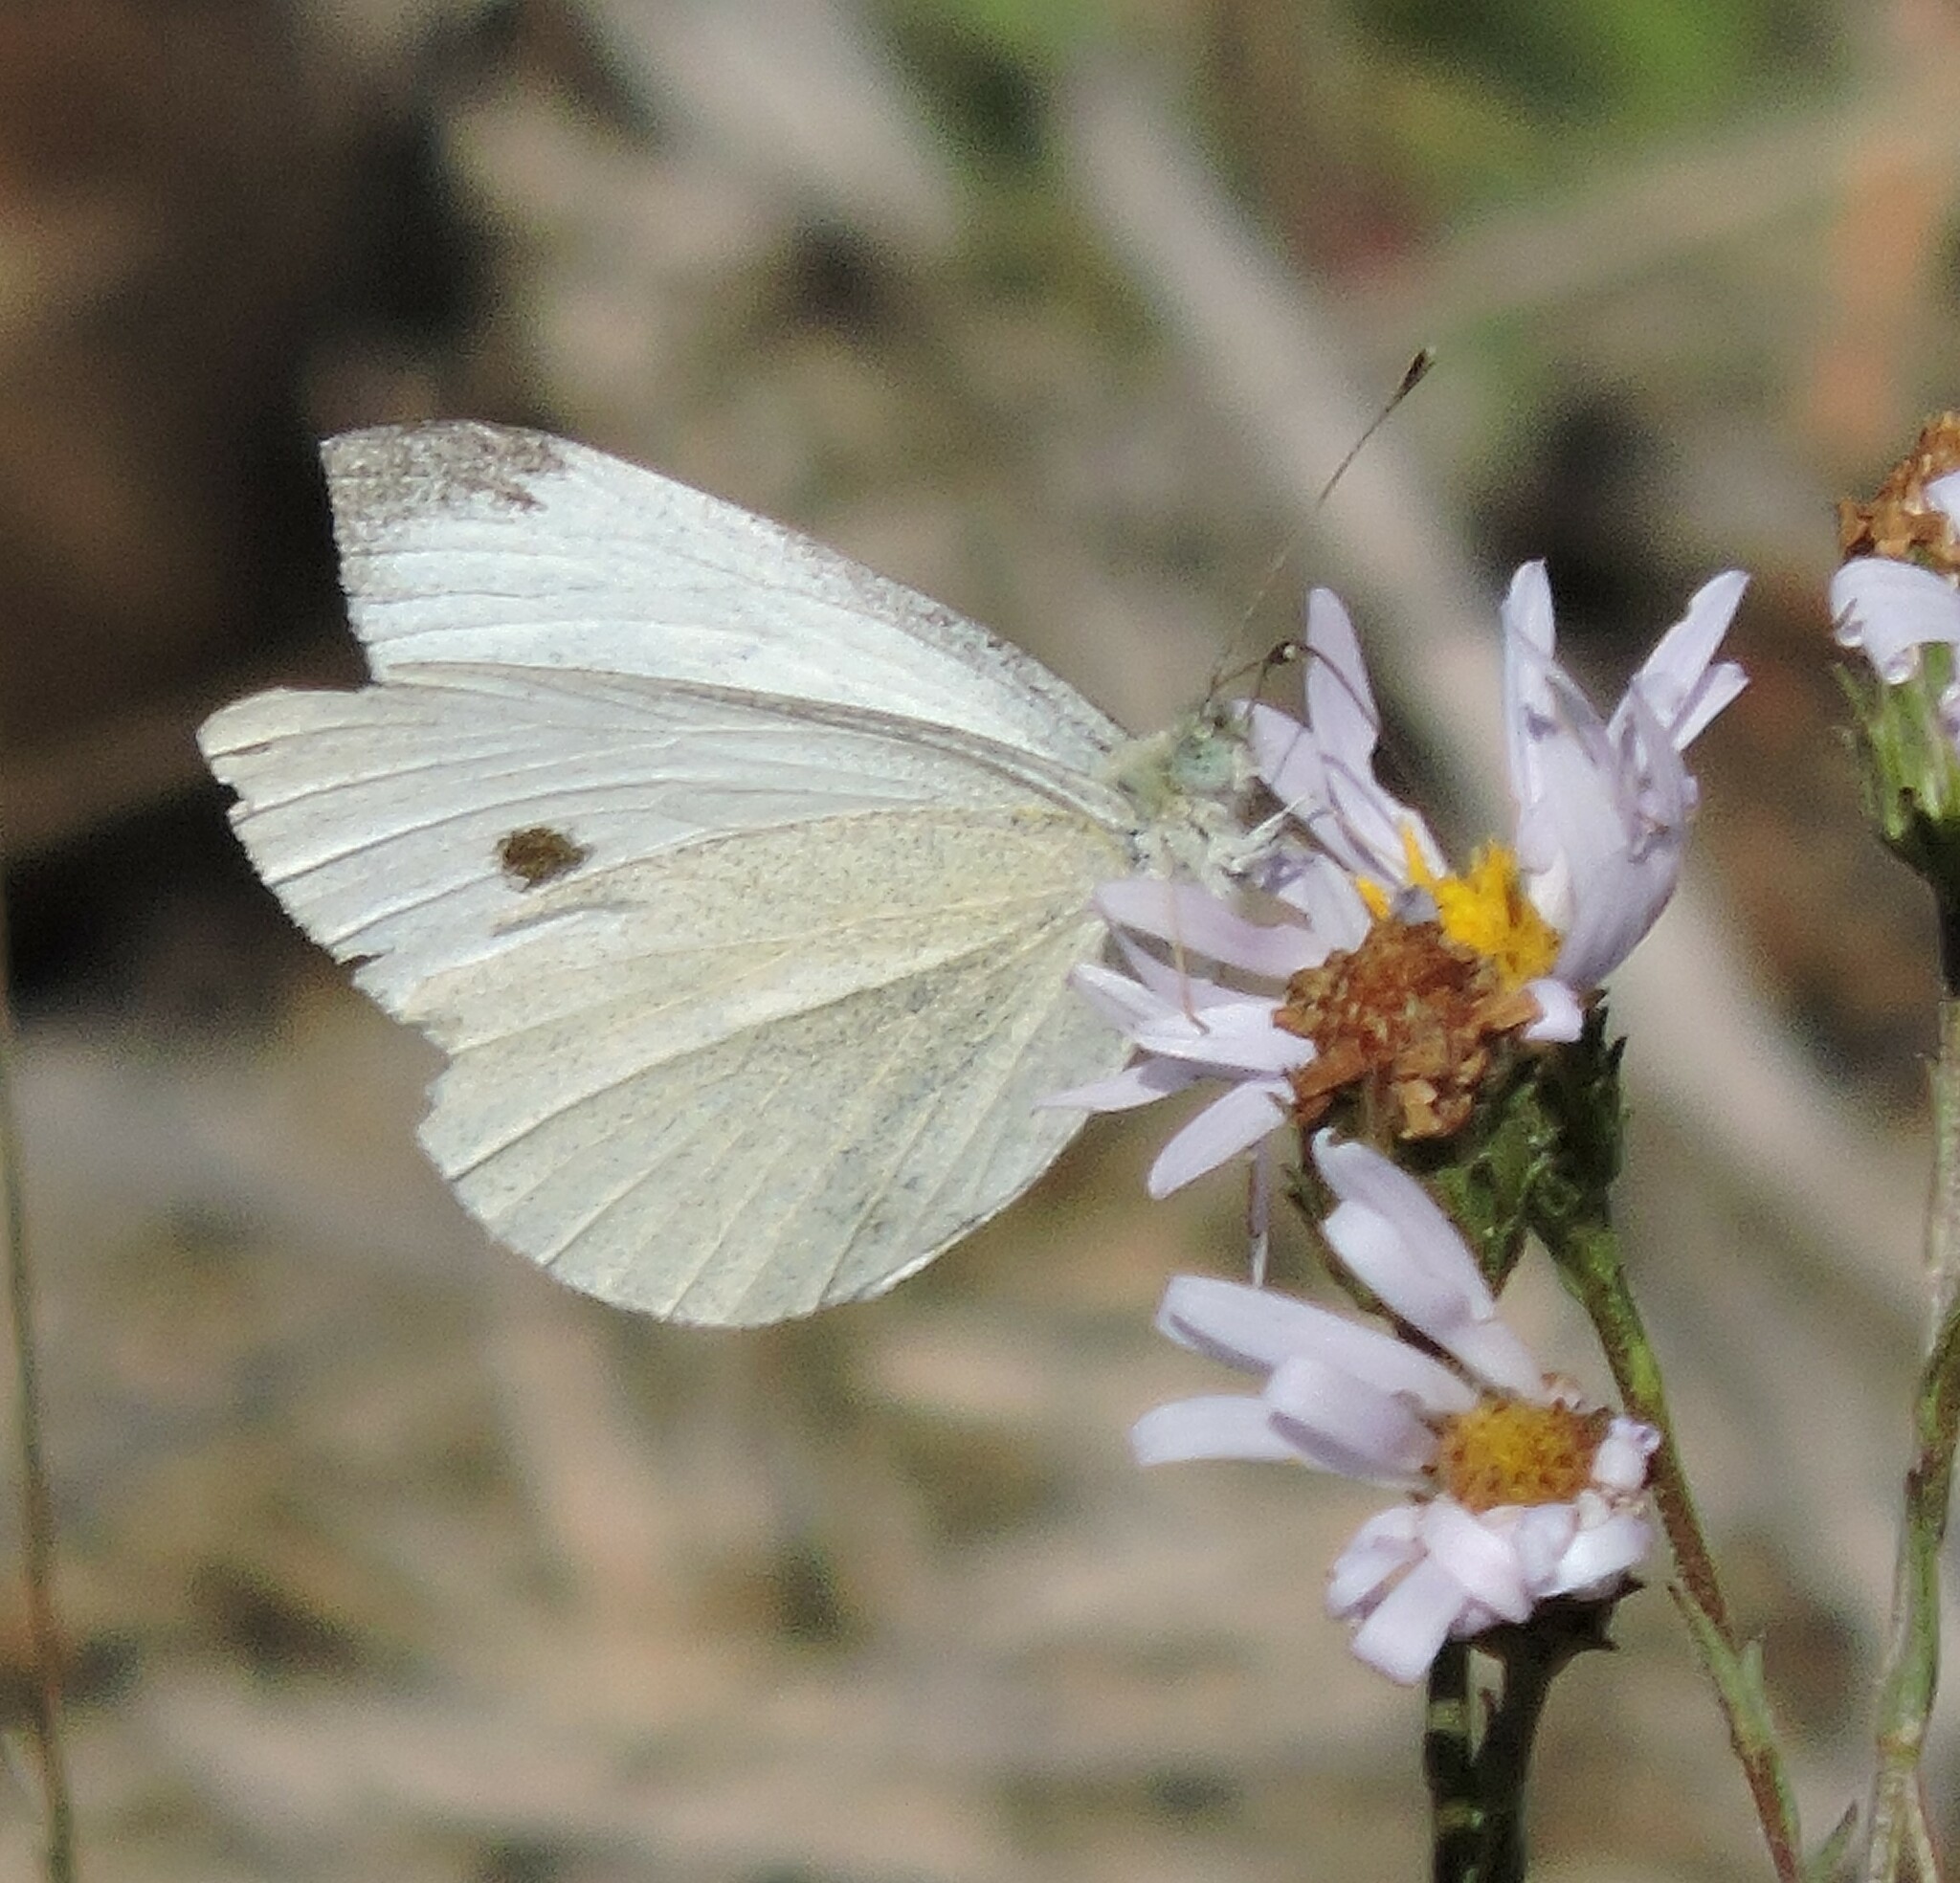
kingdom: Animalia
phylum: Arthropoda
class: Insecta
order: Lepidoptera
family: Pieridae
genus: Pieris
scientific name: Pieris rapae
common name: Small white
